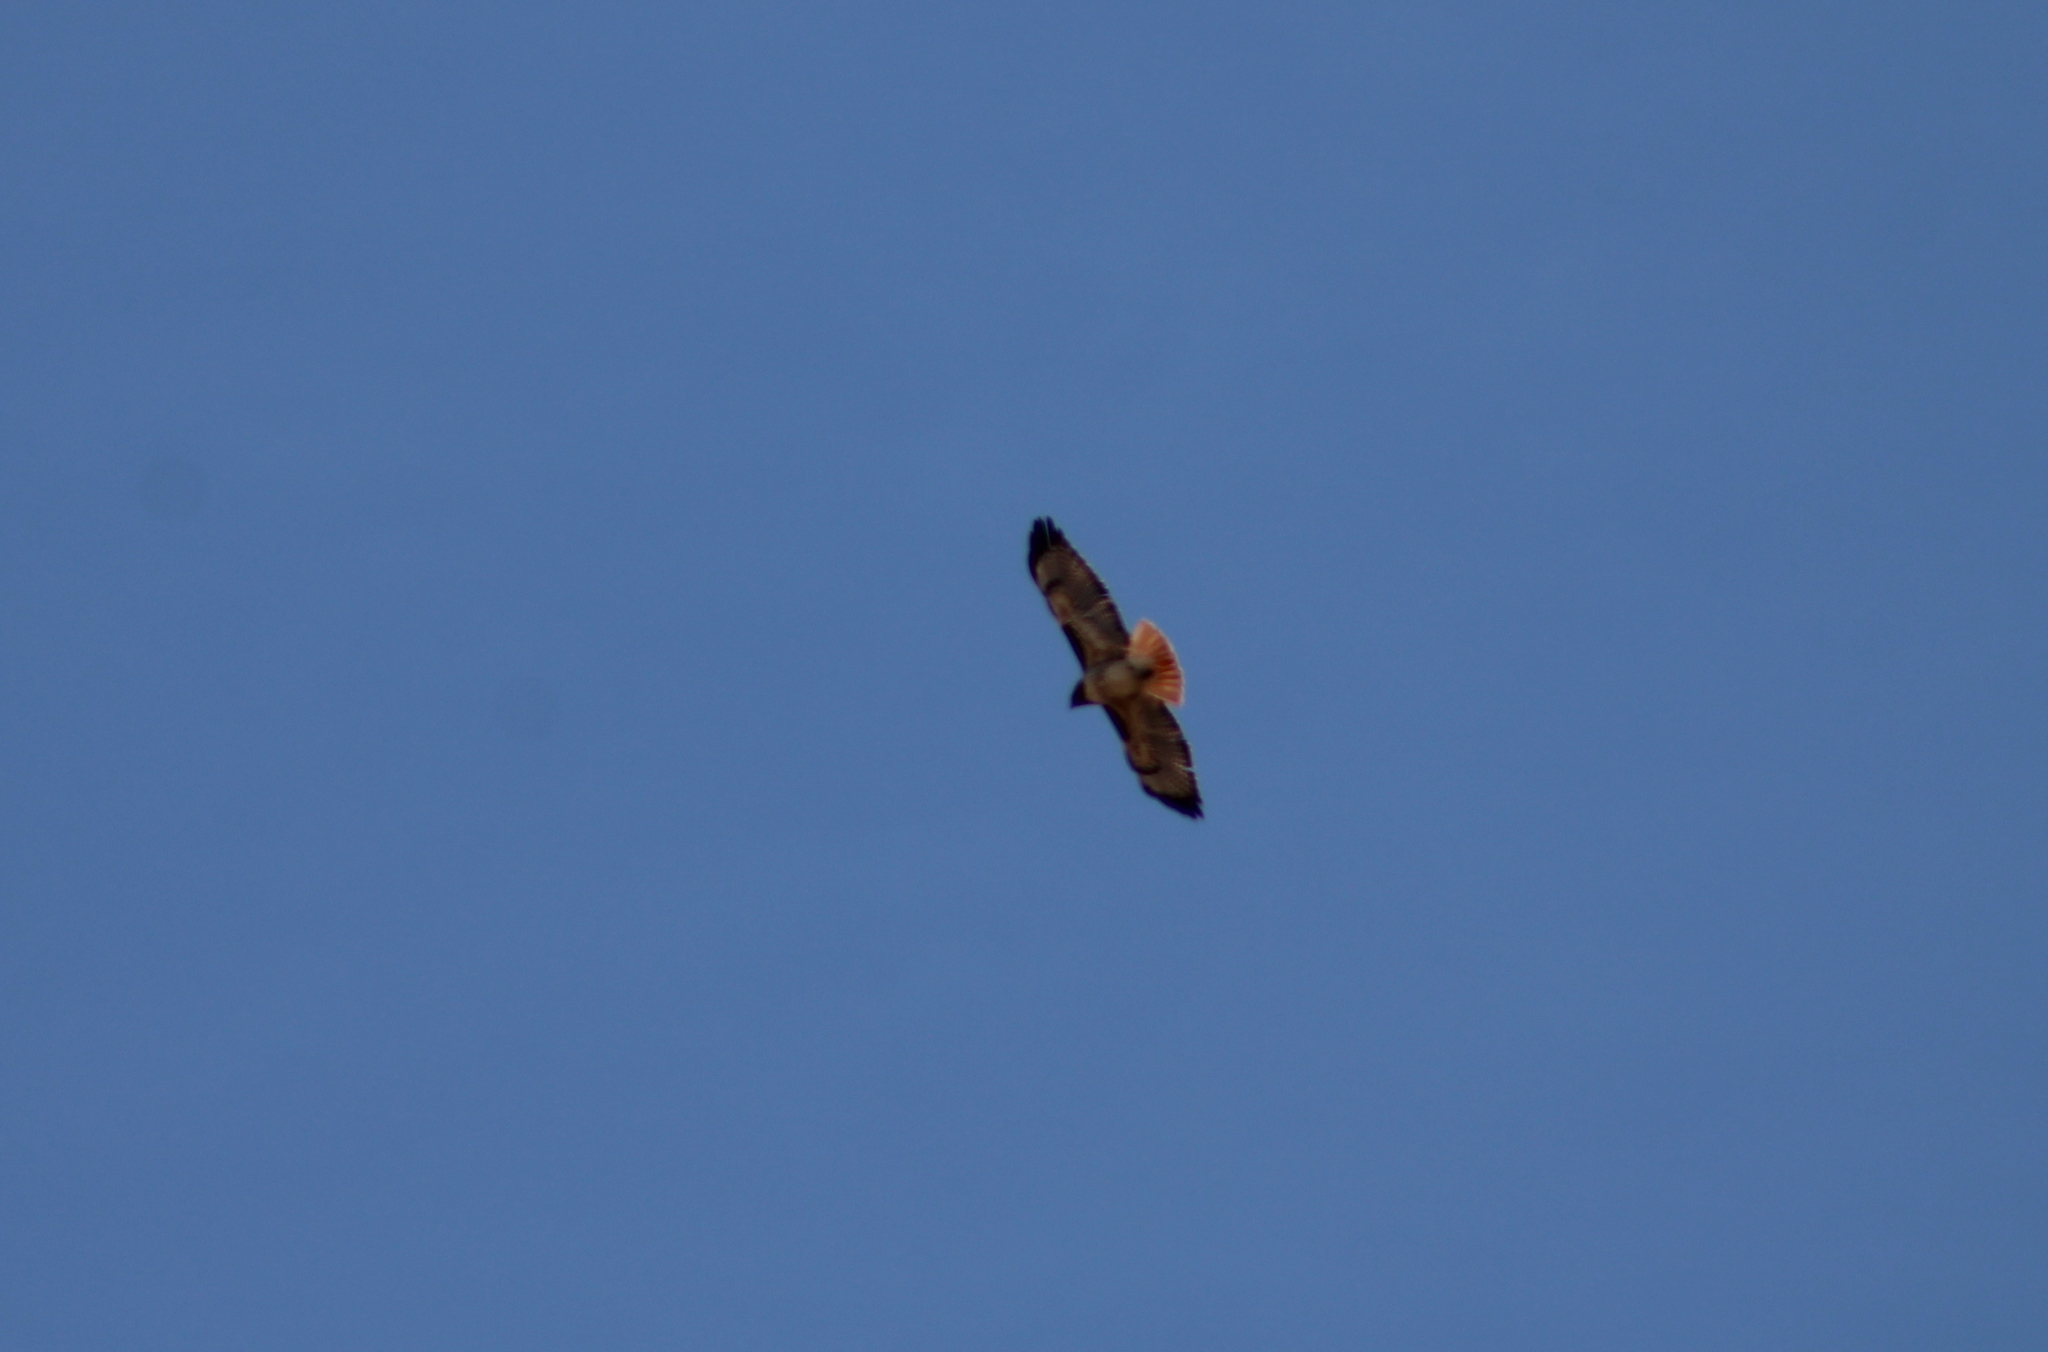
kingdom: Animalia
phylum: Chordata
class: Aves
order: Accipitriformes
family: Accipitridae
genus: Buteo
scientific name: Buteo jamaicensis
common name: Red-tailed hawk
